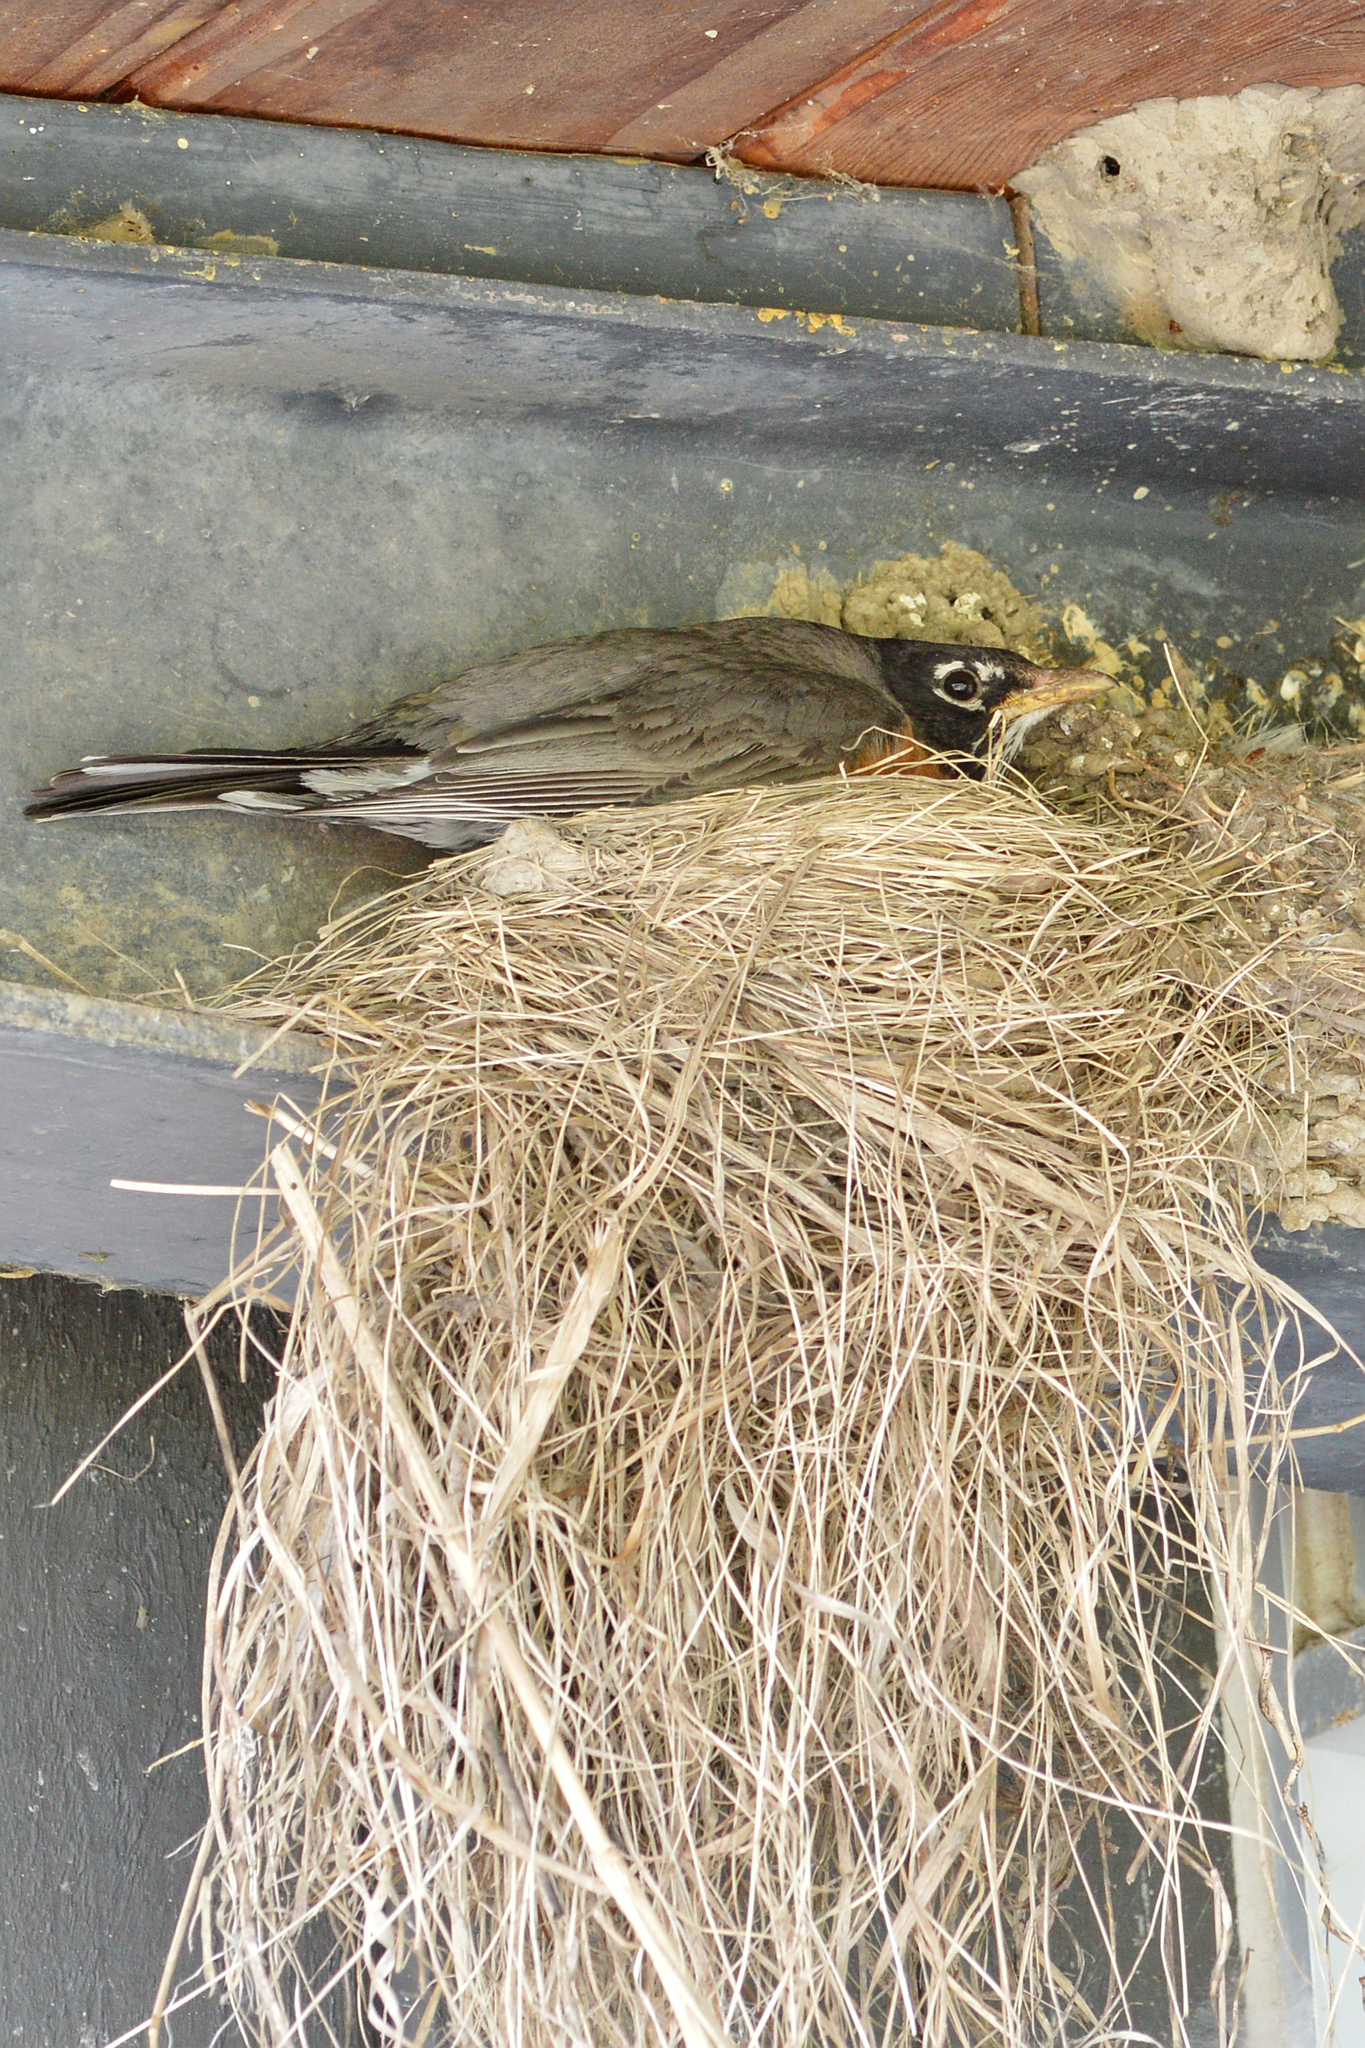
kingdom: Animalia
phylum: Chordata
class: Aves
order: Passeriformes
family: Turdidae
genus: Turdus
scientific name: Turdus migratorius
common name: American robin
